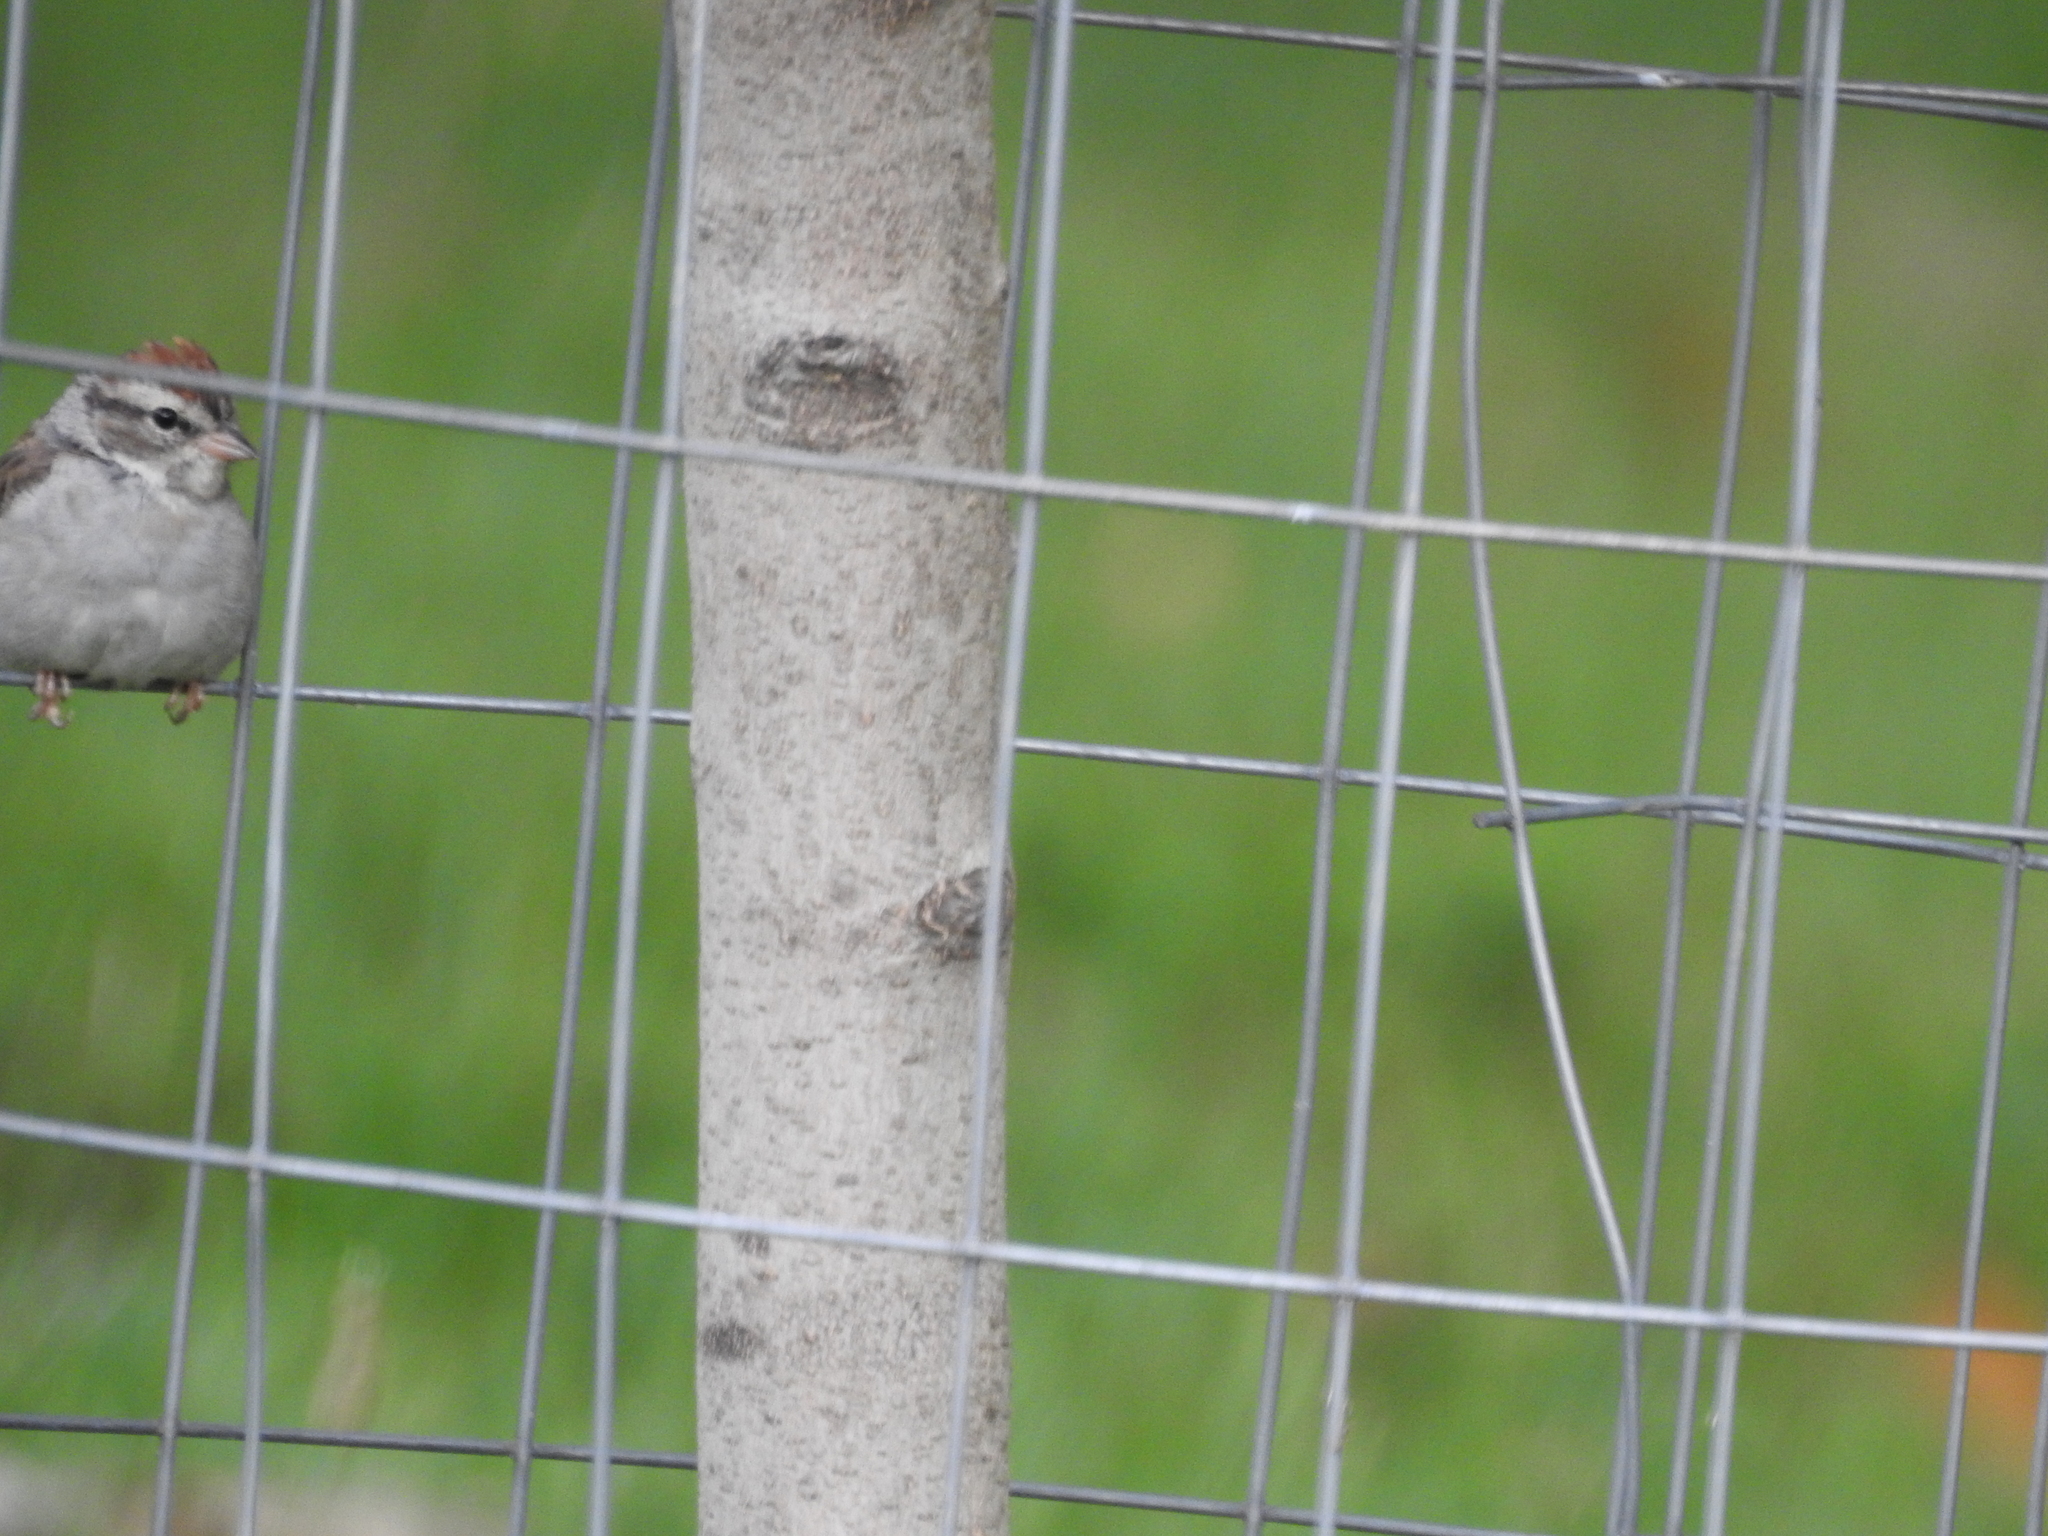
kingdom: Animalia
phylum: Chordata
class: Aves
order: Passeriformes
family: Passerellidae
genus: Spizella
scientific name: Spizella passerina
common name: Chipping sparrow
